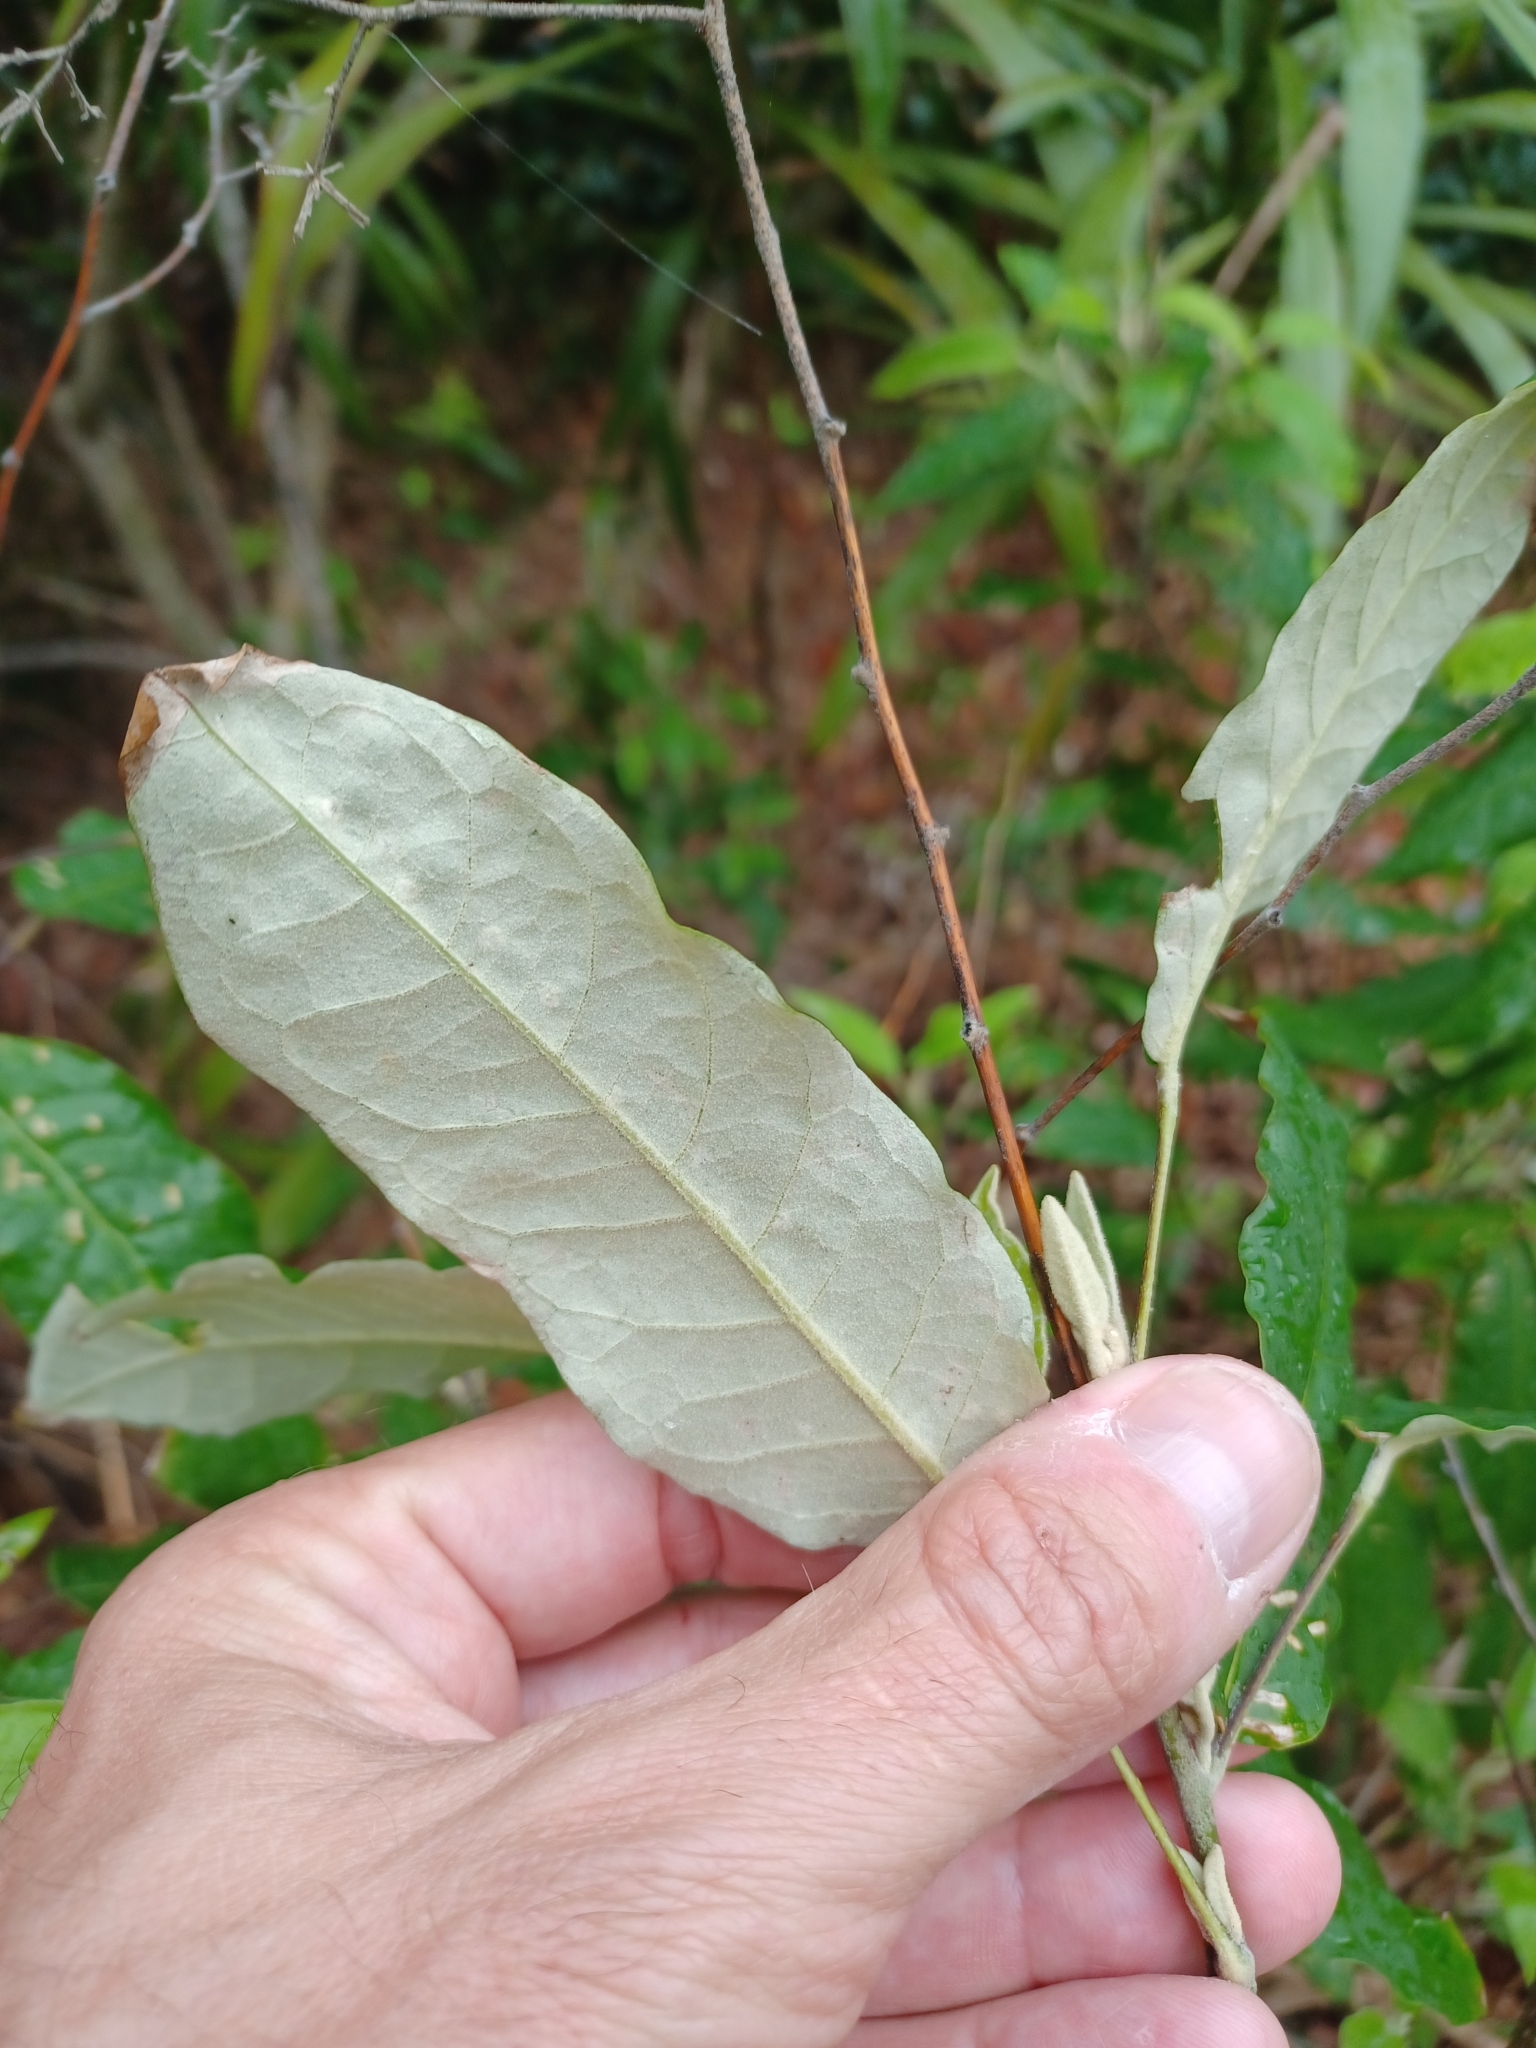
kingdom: Plantae
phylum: Tracheophyta
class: Magnoliopsida
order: Apiales
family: Araliaceae
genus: Astrotricha
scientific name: Astrotricha latifolia
